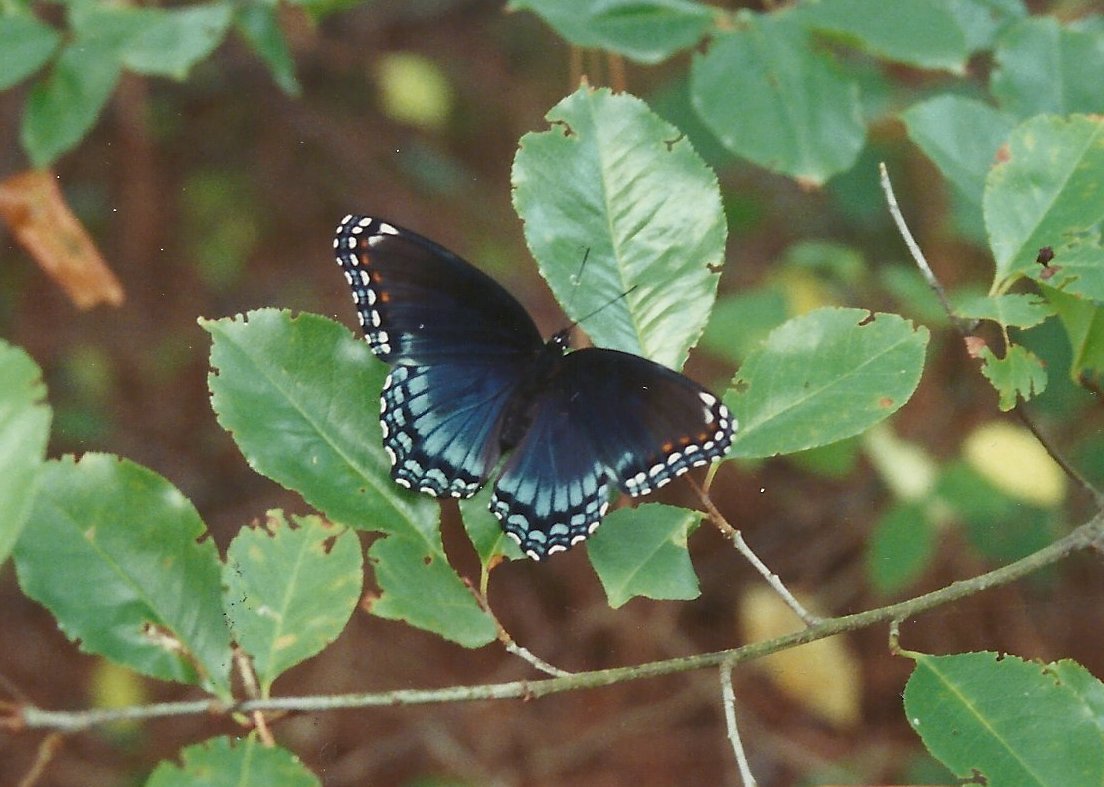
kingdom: Animalia
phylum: Arthropoda
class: Insecta
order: Lepidoptera
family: Nymphalidae
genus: Limenitis
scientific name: Limenitis astyanax
